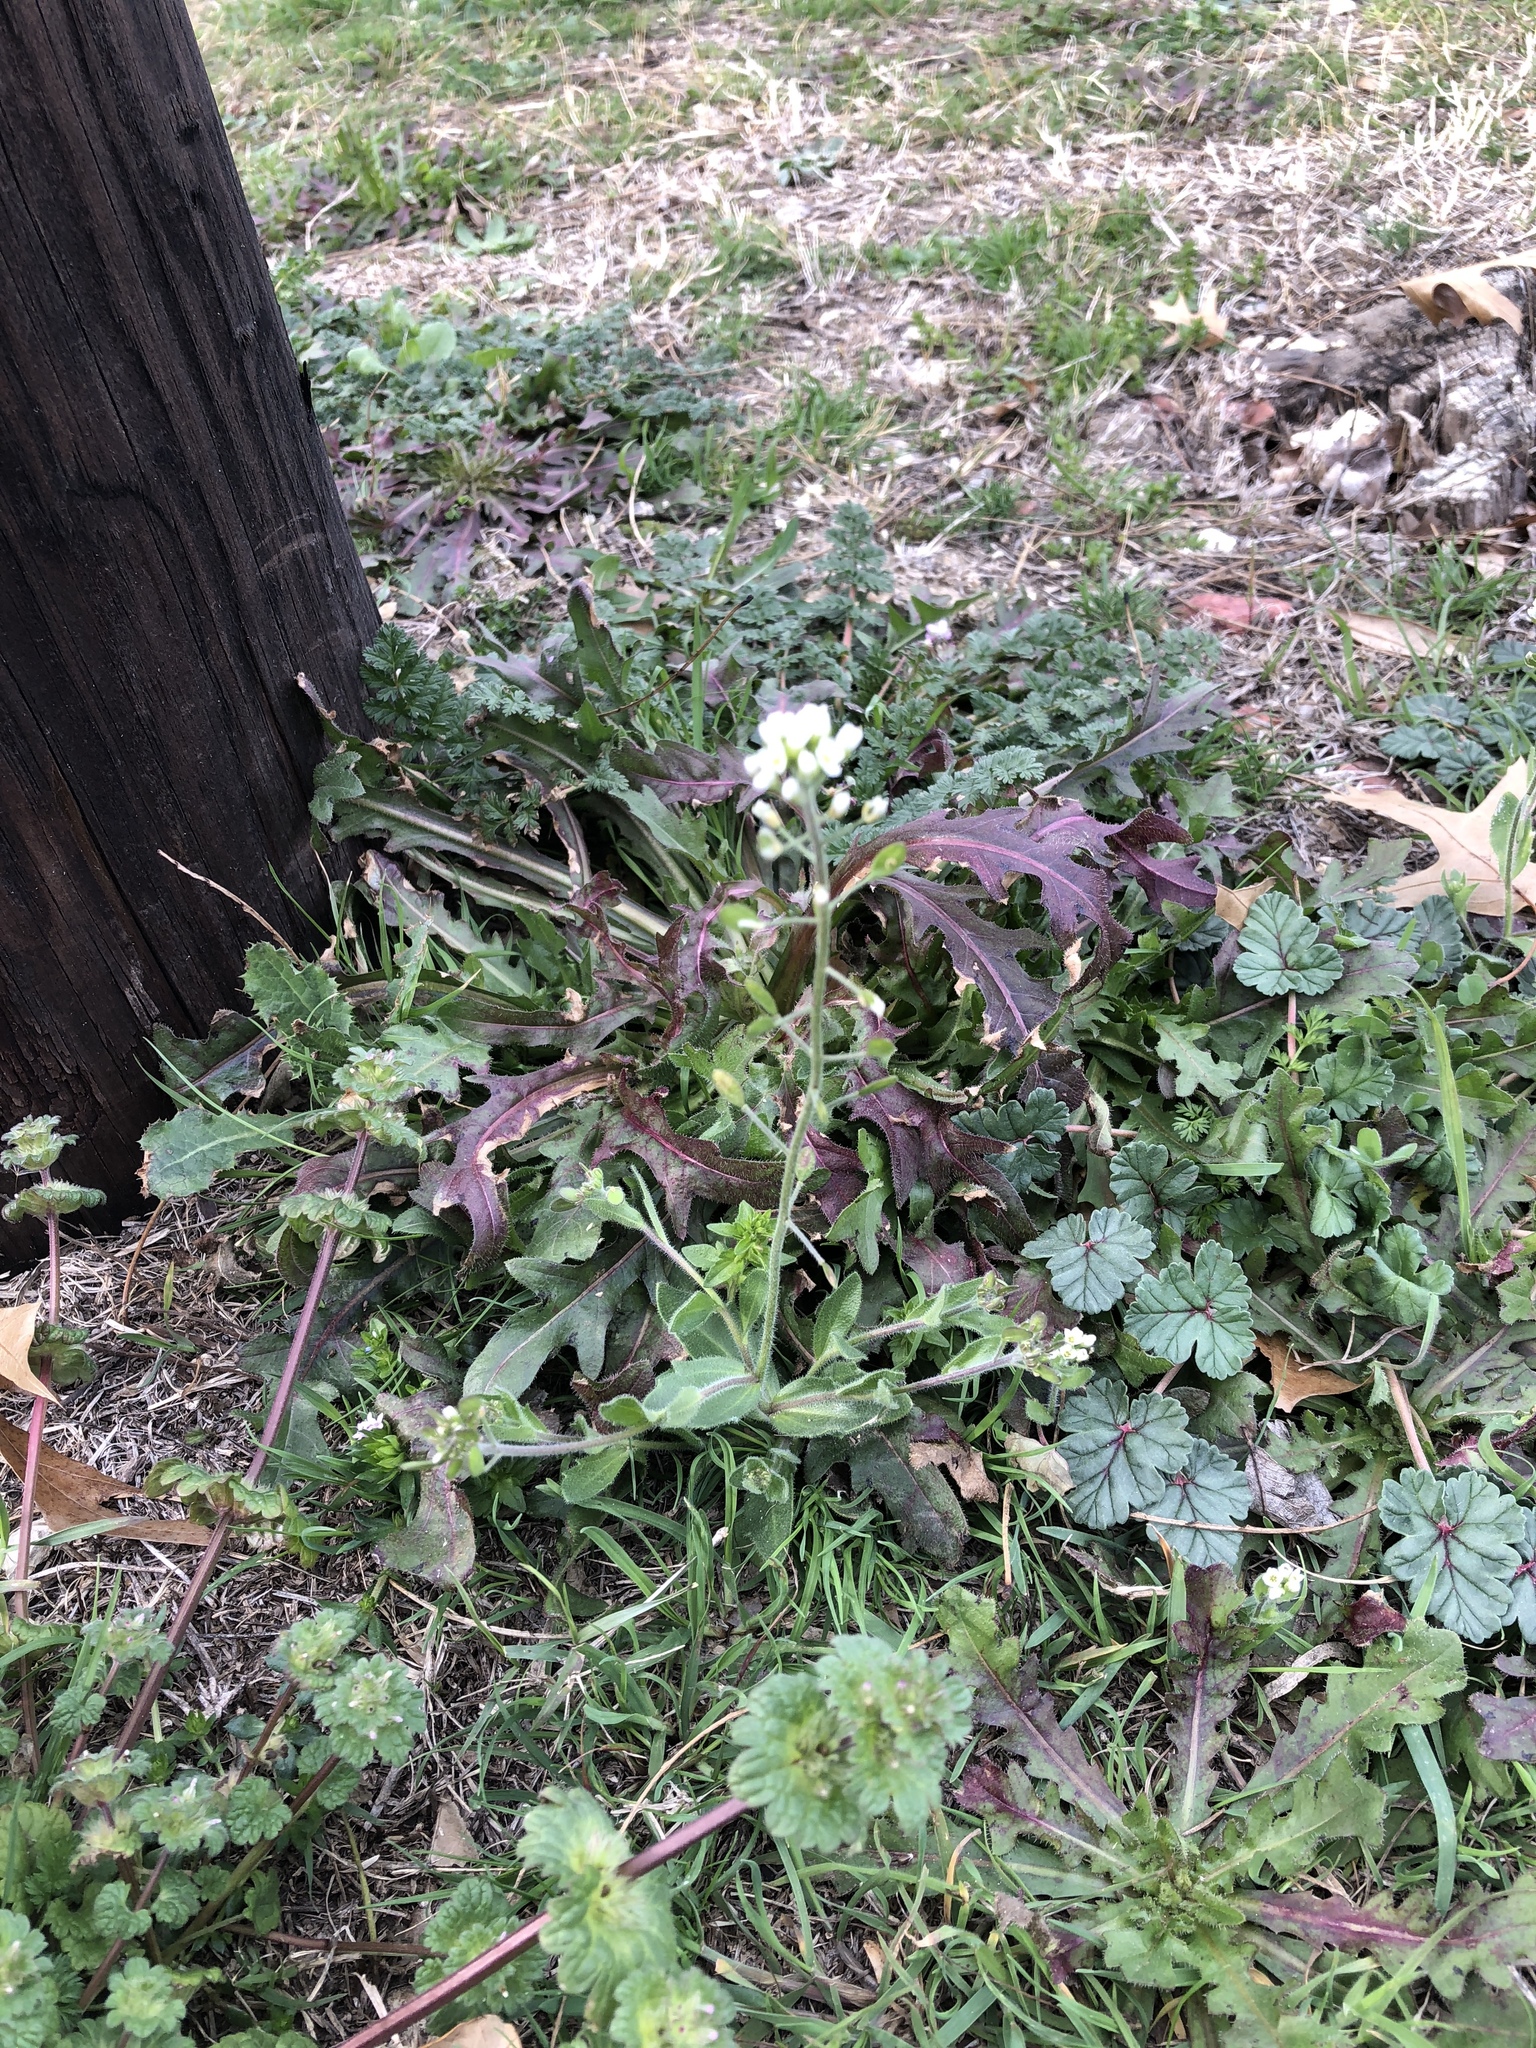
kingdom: Plantae
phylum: Tracheophyta
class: Magnoliopsida
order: Brassicales
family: Brassicaceae
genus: Tomostima
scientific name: Tomostima platycarpa
